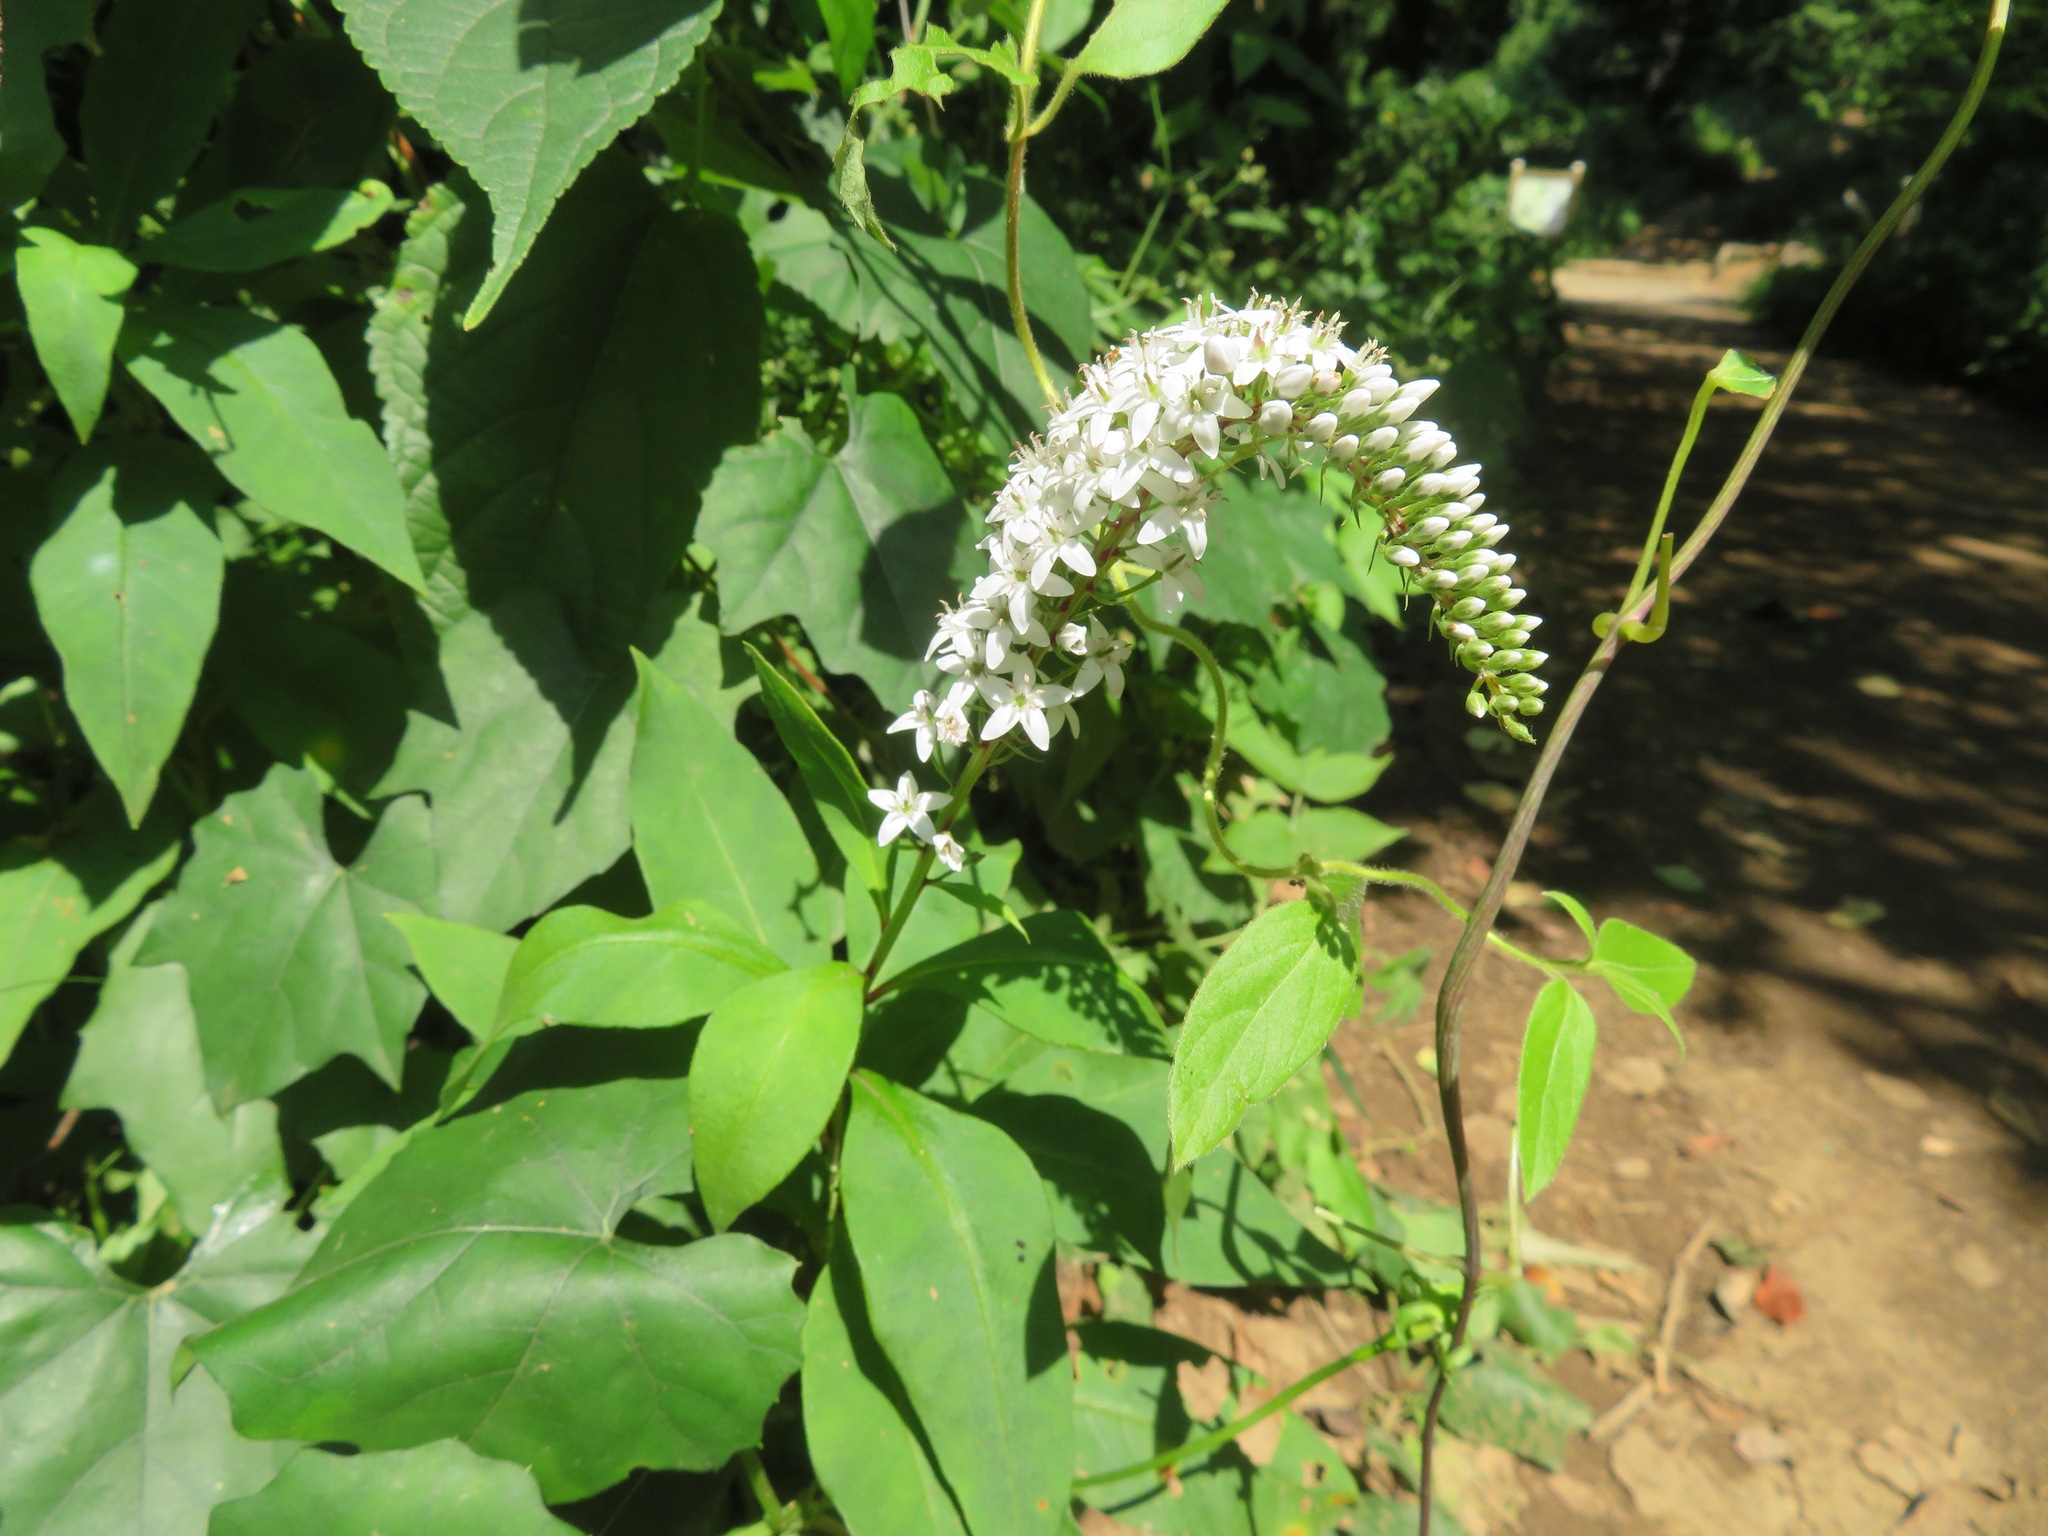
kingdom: Plantae
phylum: Tracheophyta
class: Magnoliopsida
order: Ericales
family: Primulaceae
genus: Lysimachia
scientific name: Lysimachia clethroides
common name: Gooseneck loosestrife
